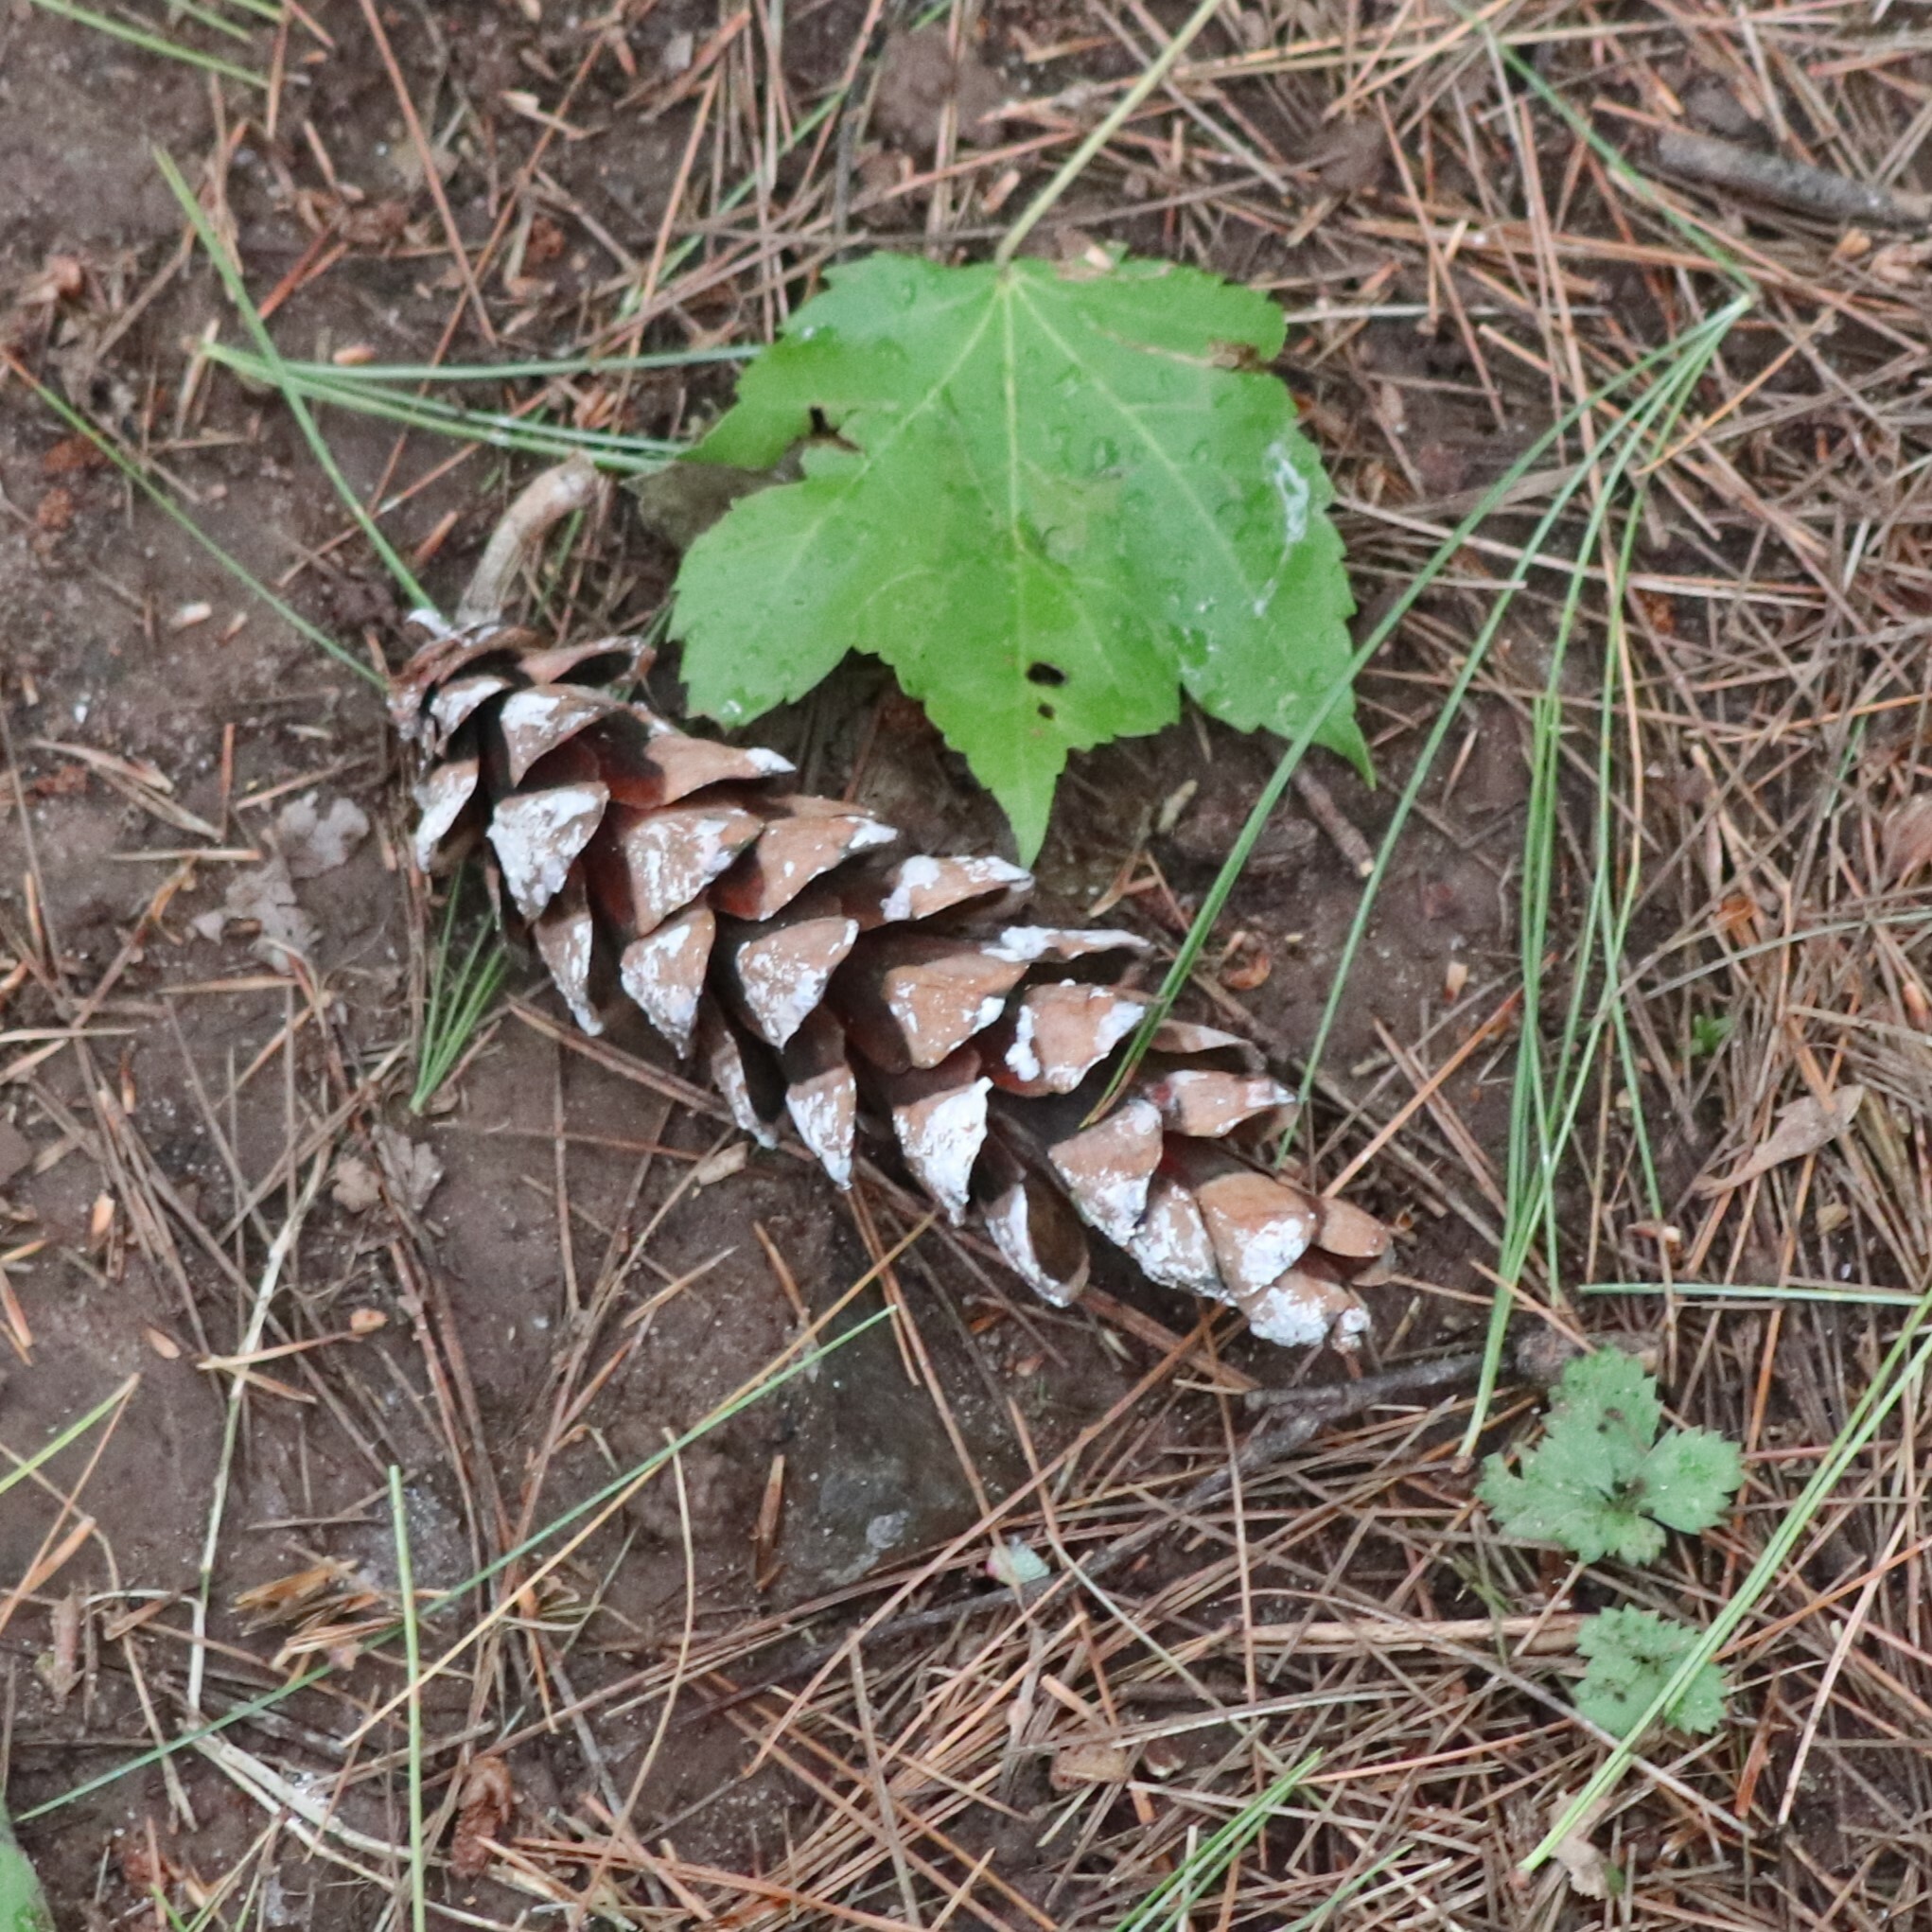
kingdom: Plantae
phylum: Tracheophyta
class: Pinopsida
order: Pinales
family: Pinaceae
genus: Pinus
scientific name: Pinus strobus
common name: Weymouth pine
